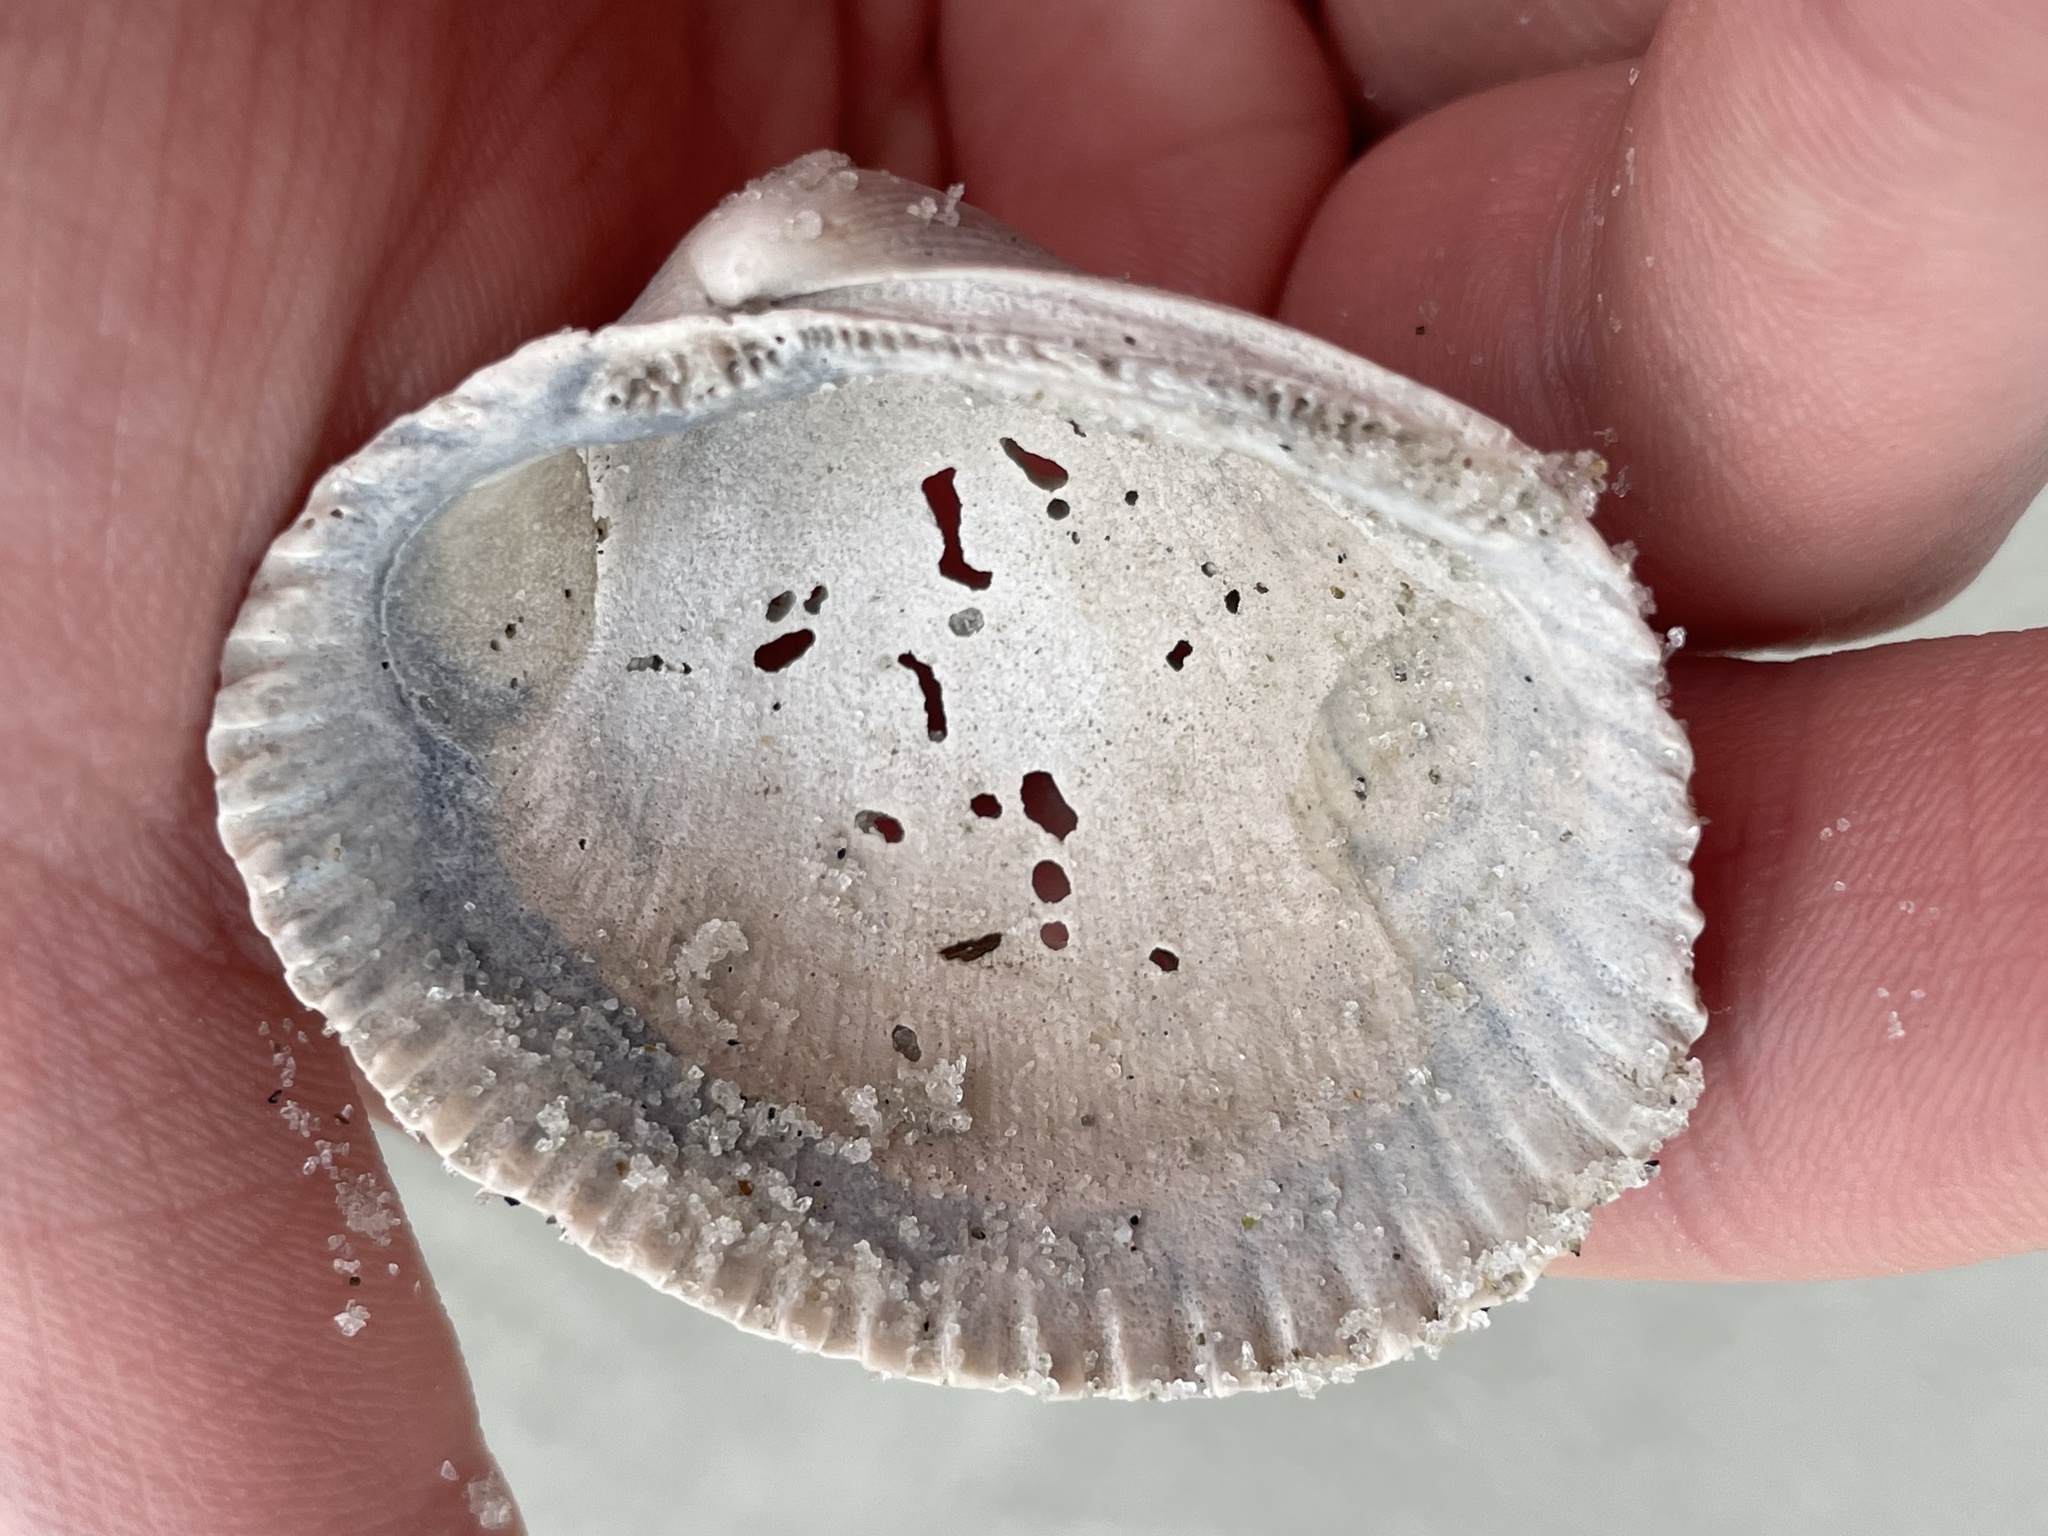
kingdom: Animalia
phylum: Mollusca
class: Bivalvia
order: Arcida
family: Arcidae
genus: Lunarca
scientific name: Lunarca ovalis
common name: Blood ark
